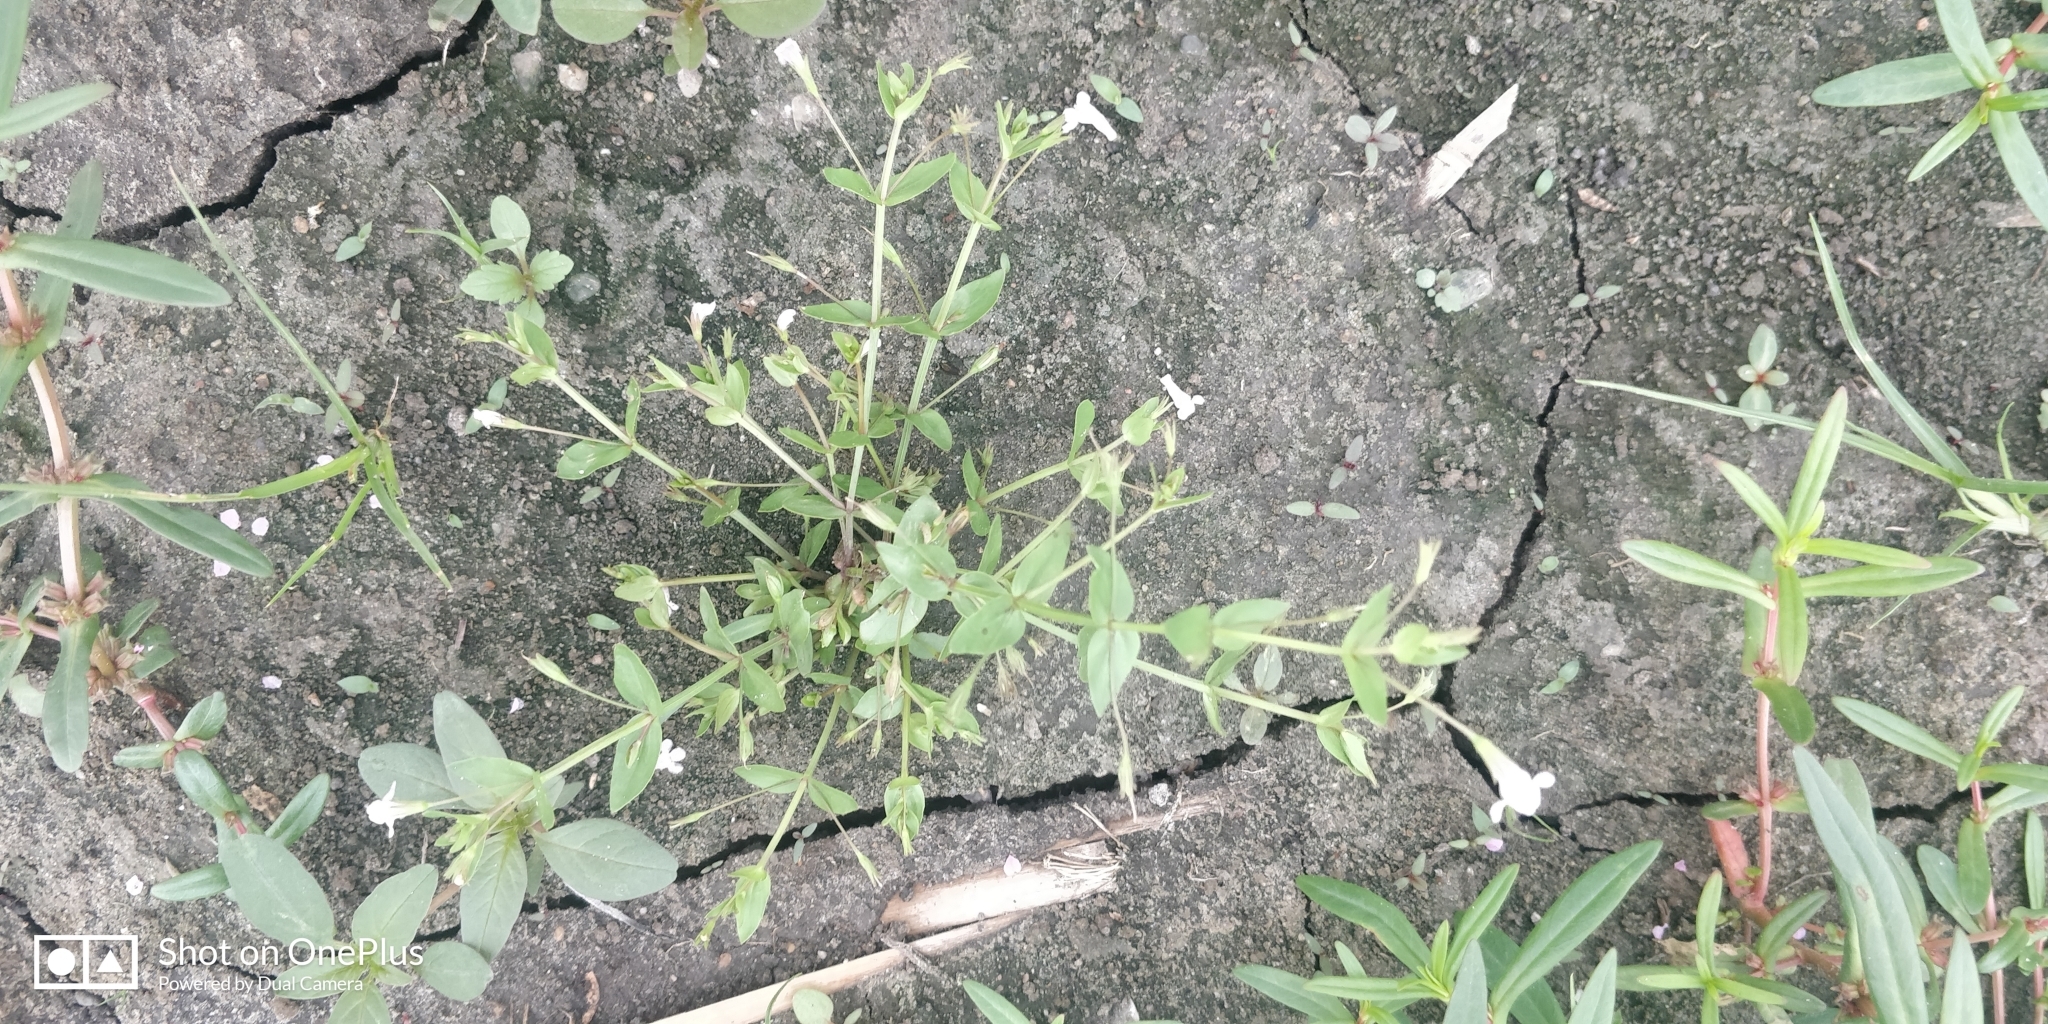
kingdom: Plantae
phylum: Tracheophyta
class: Magnoliopsida
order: Lamiales
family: Linderniaceae
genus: Lindernia
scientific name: Lindernia dubia
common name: Annual false pimpernel
